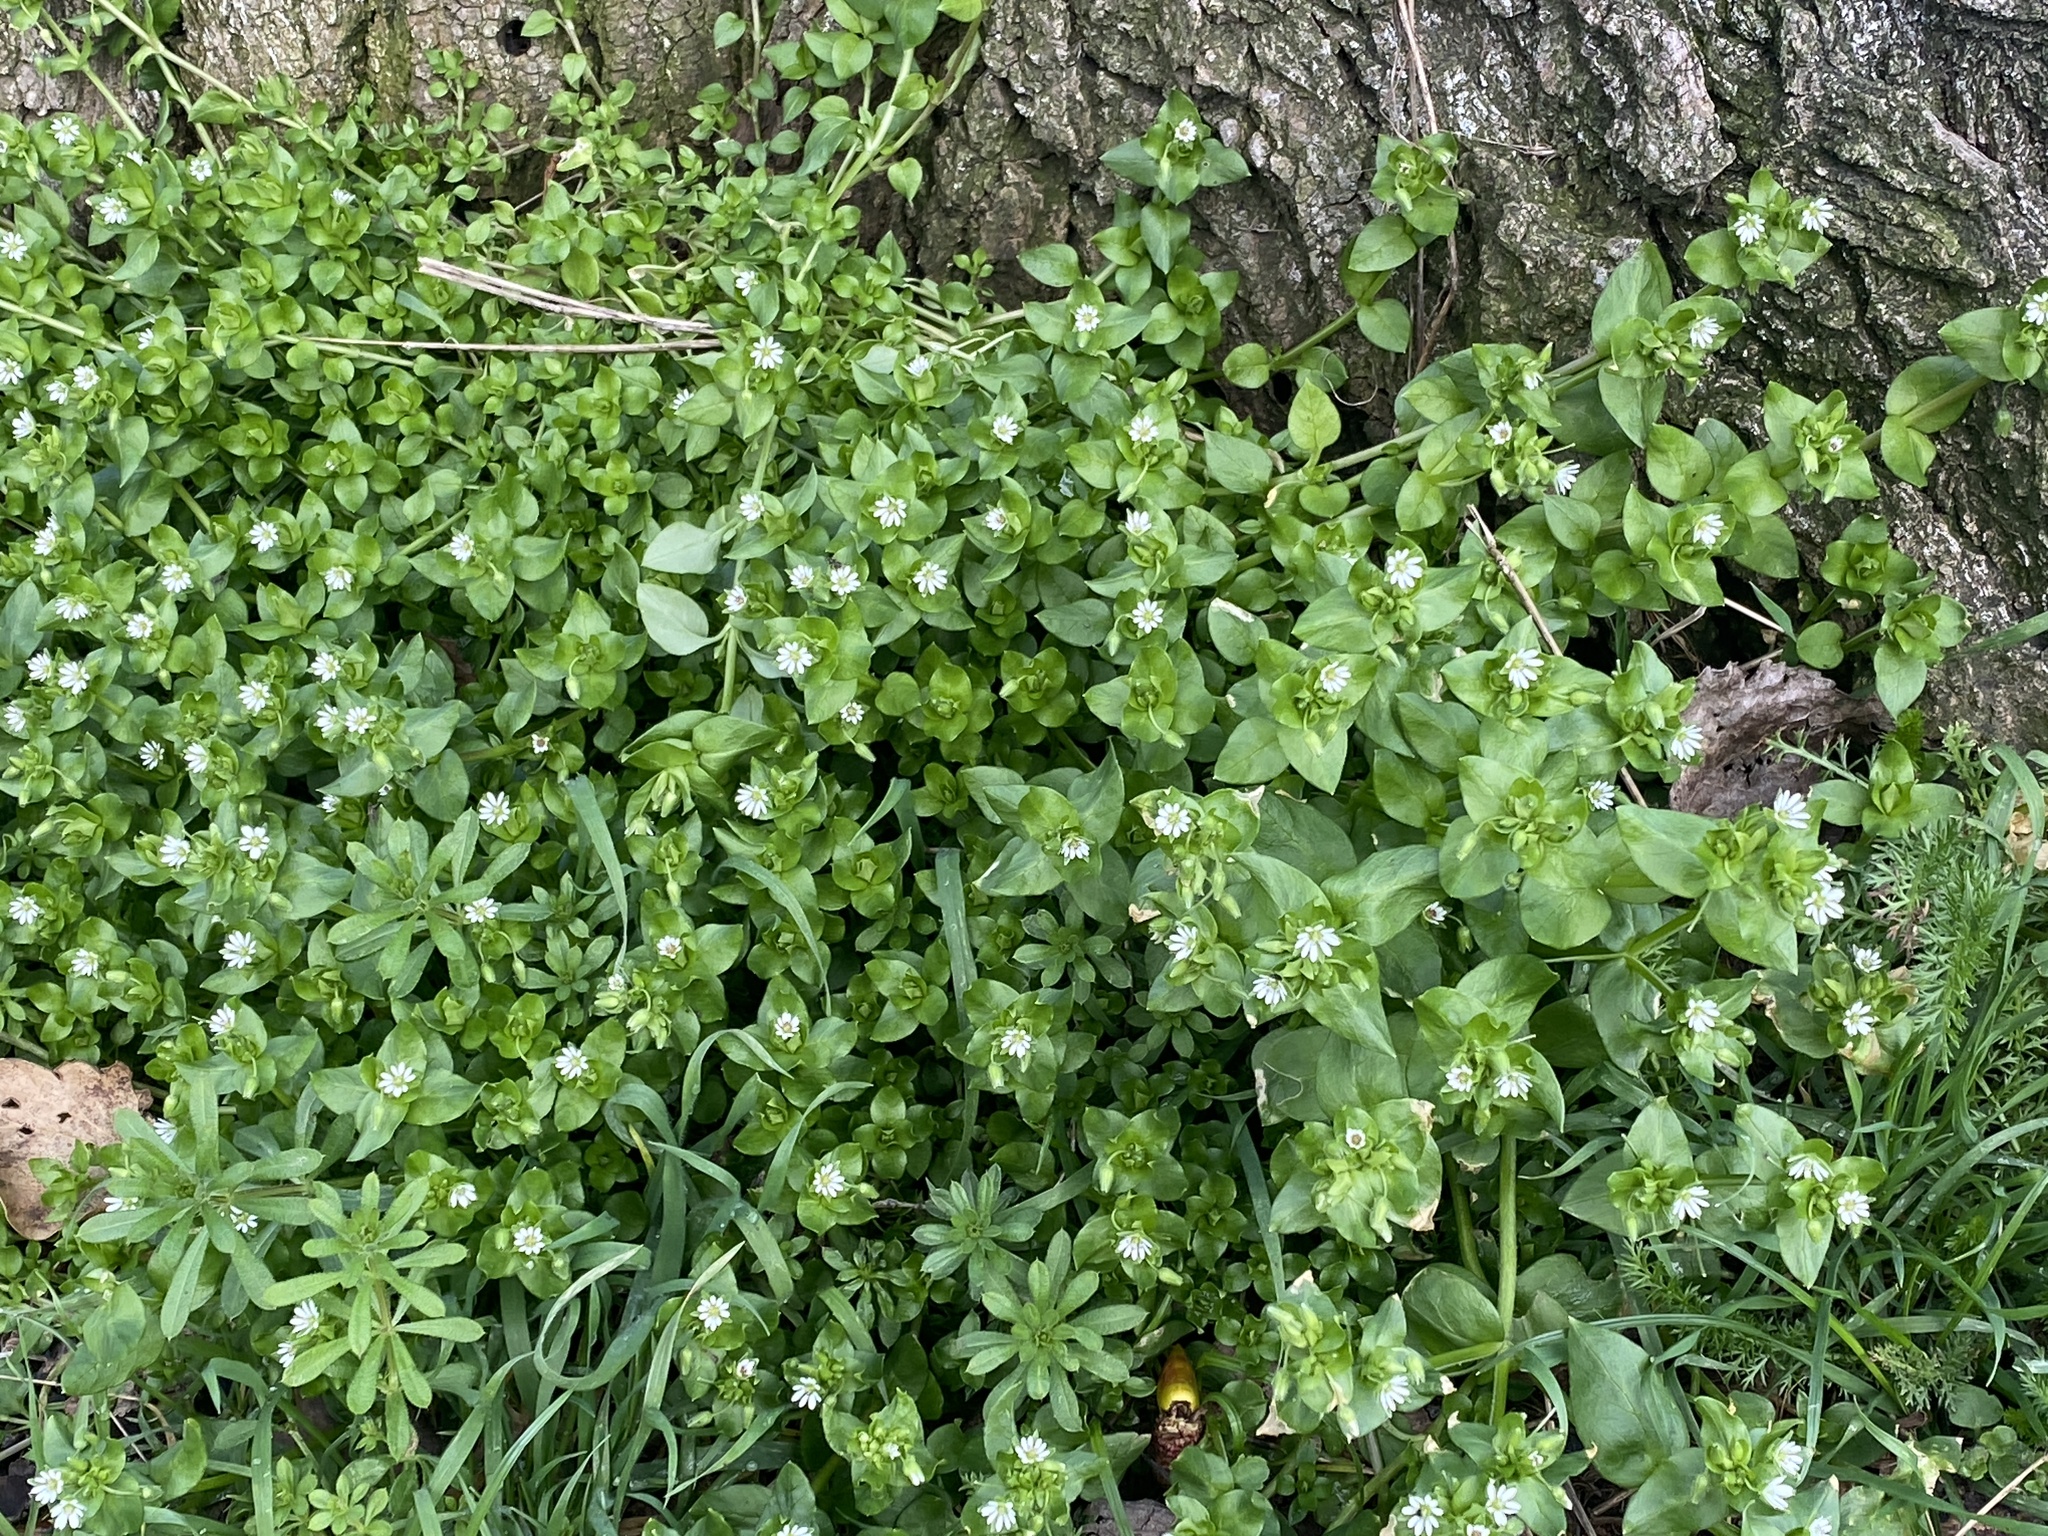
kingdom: Plantae
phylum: Tracheophyta
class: Magnoliopsida
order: Caryophyllales
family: Caryophyllaceae
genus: Stellaria
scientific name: Stellaria media
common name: Common chickweed
